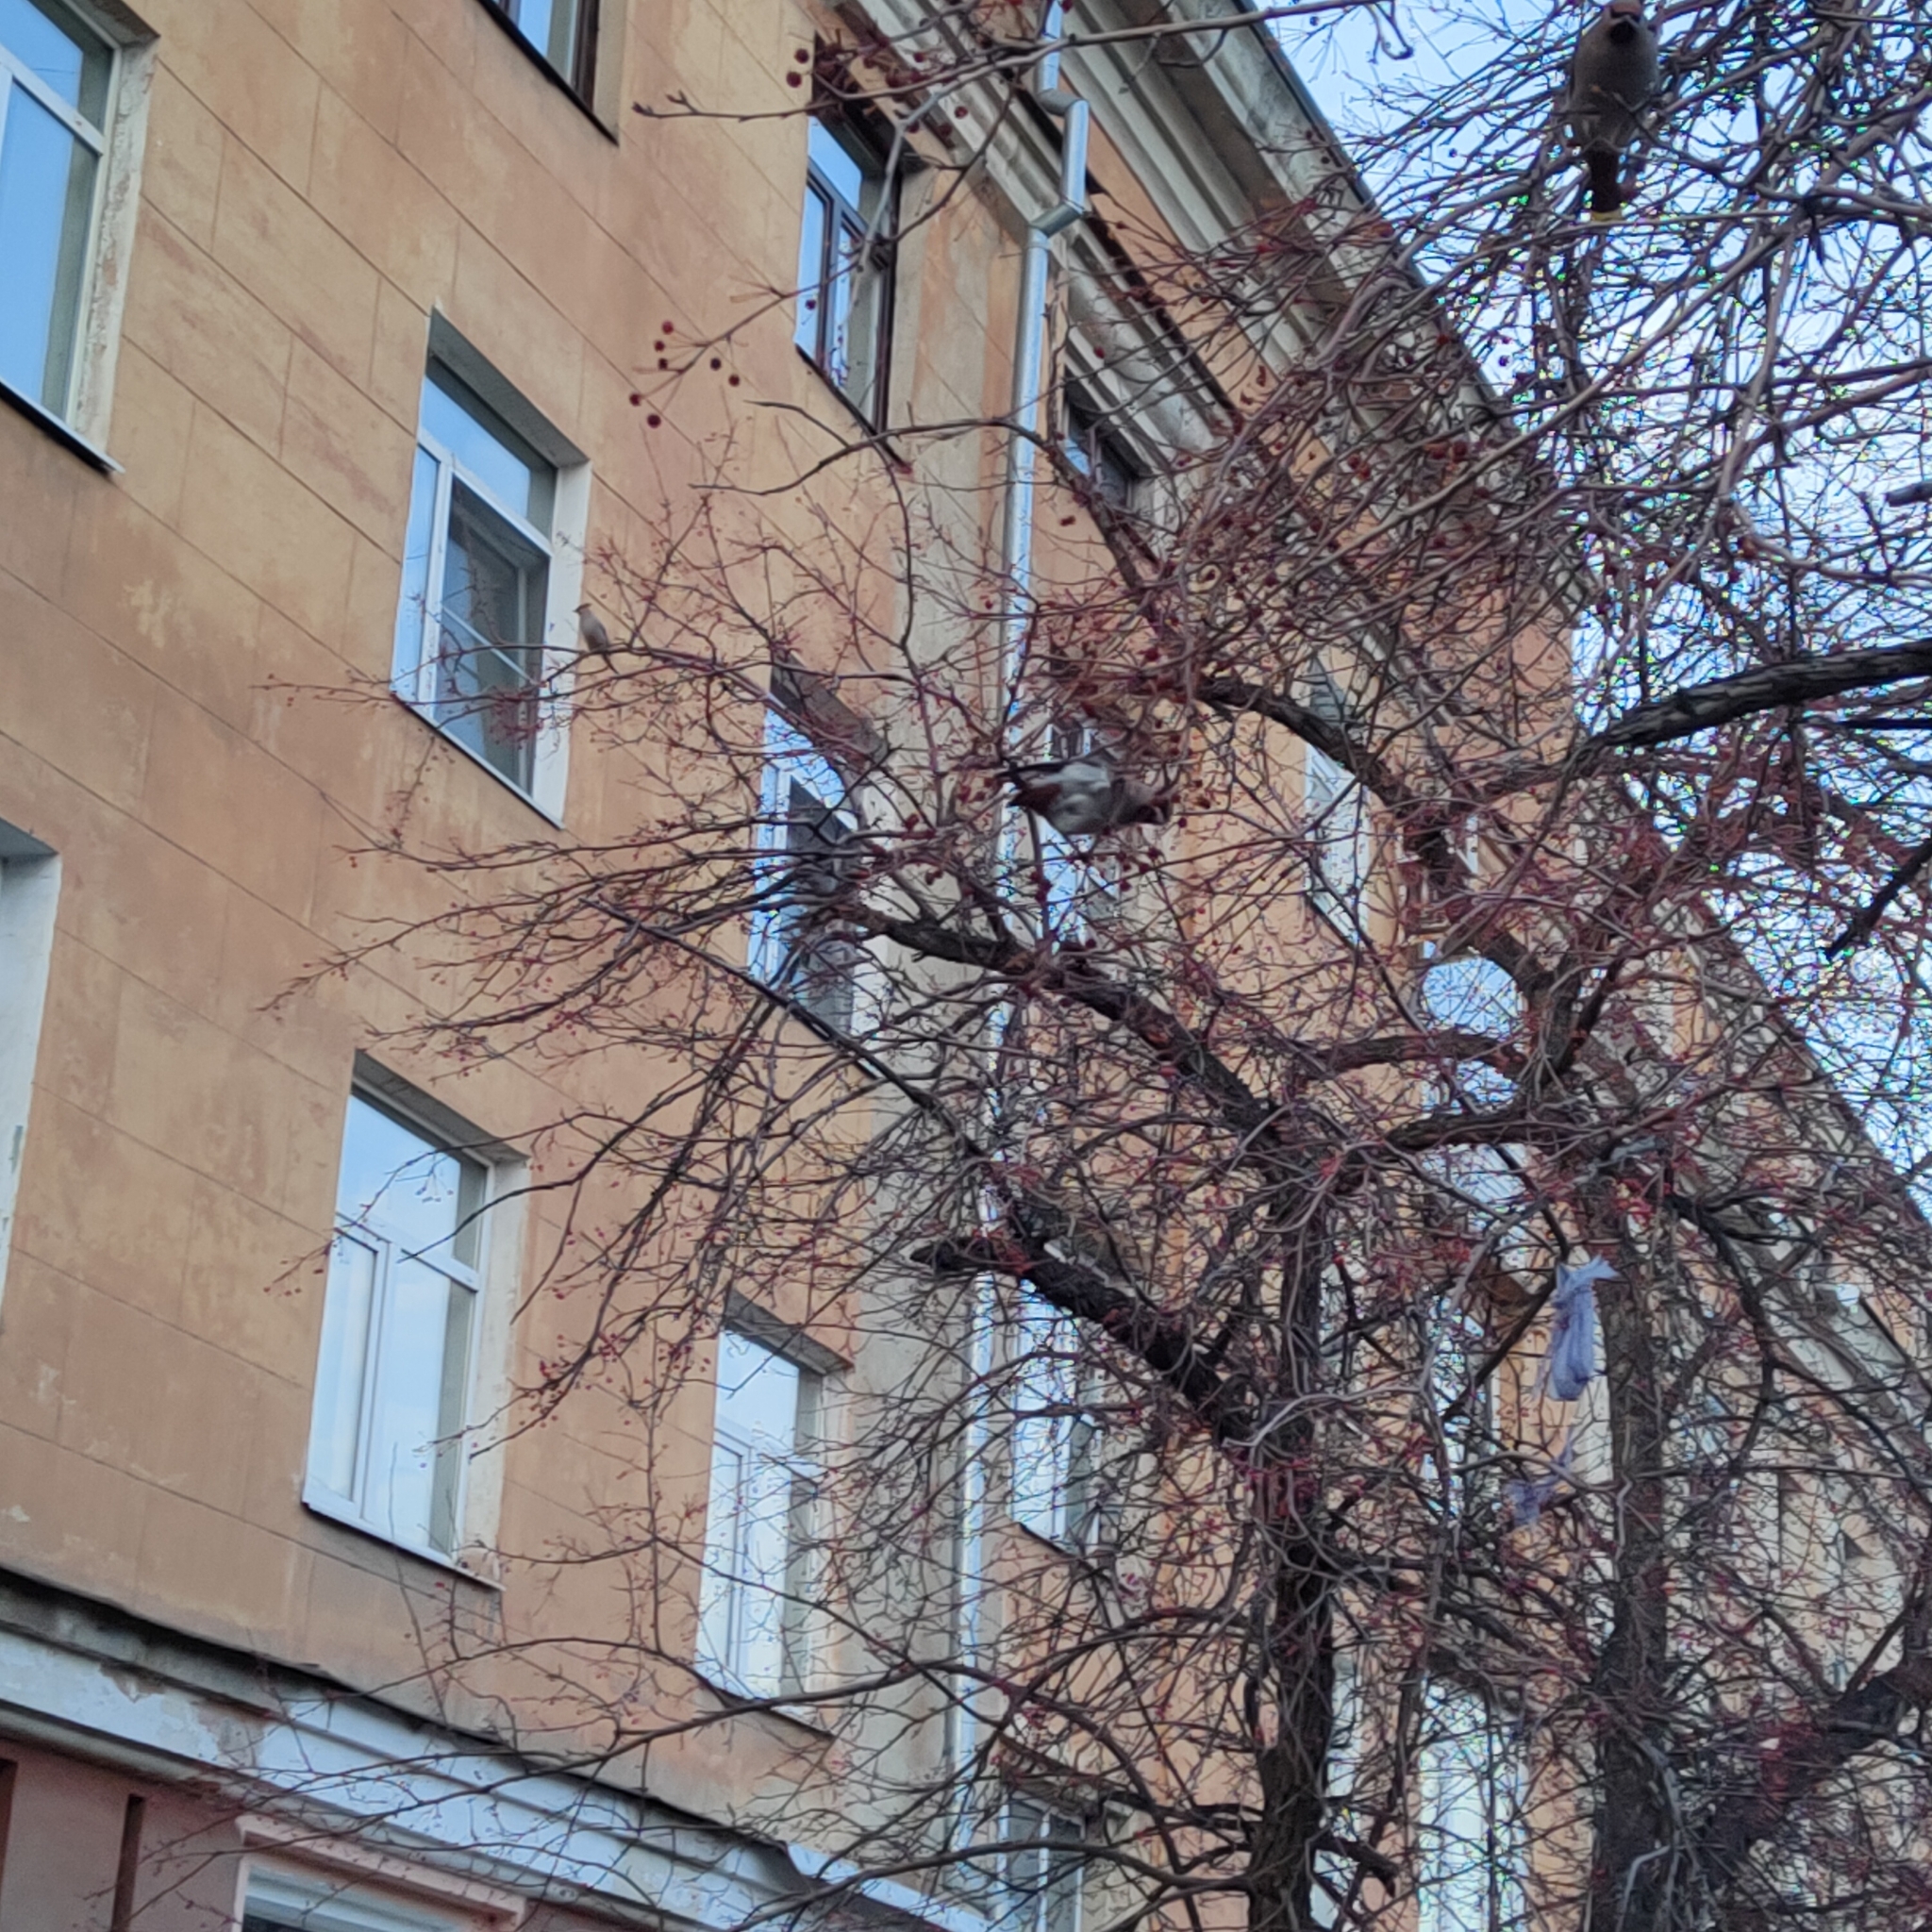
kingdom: Animalia
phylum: Chordata
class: Aves
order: Passeriformes
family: Bombycillidae
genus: Bombycilla
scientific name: Bombycilla garrulus
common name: Bohemian waxwing
